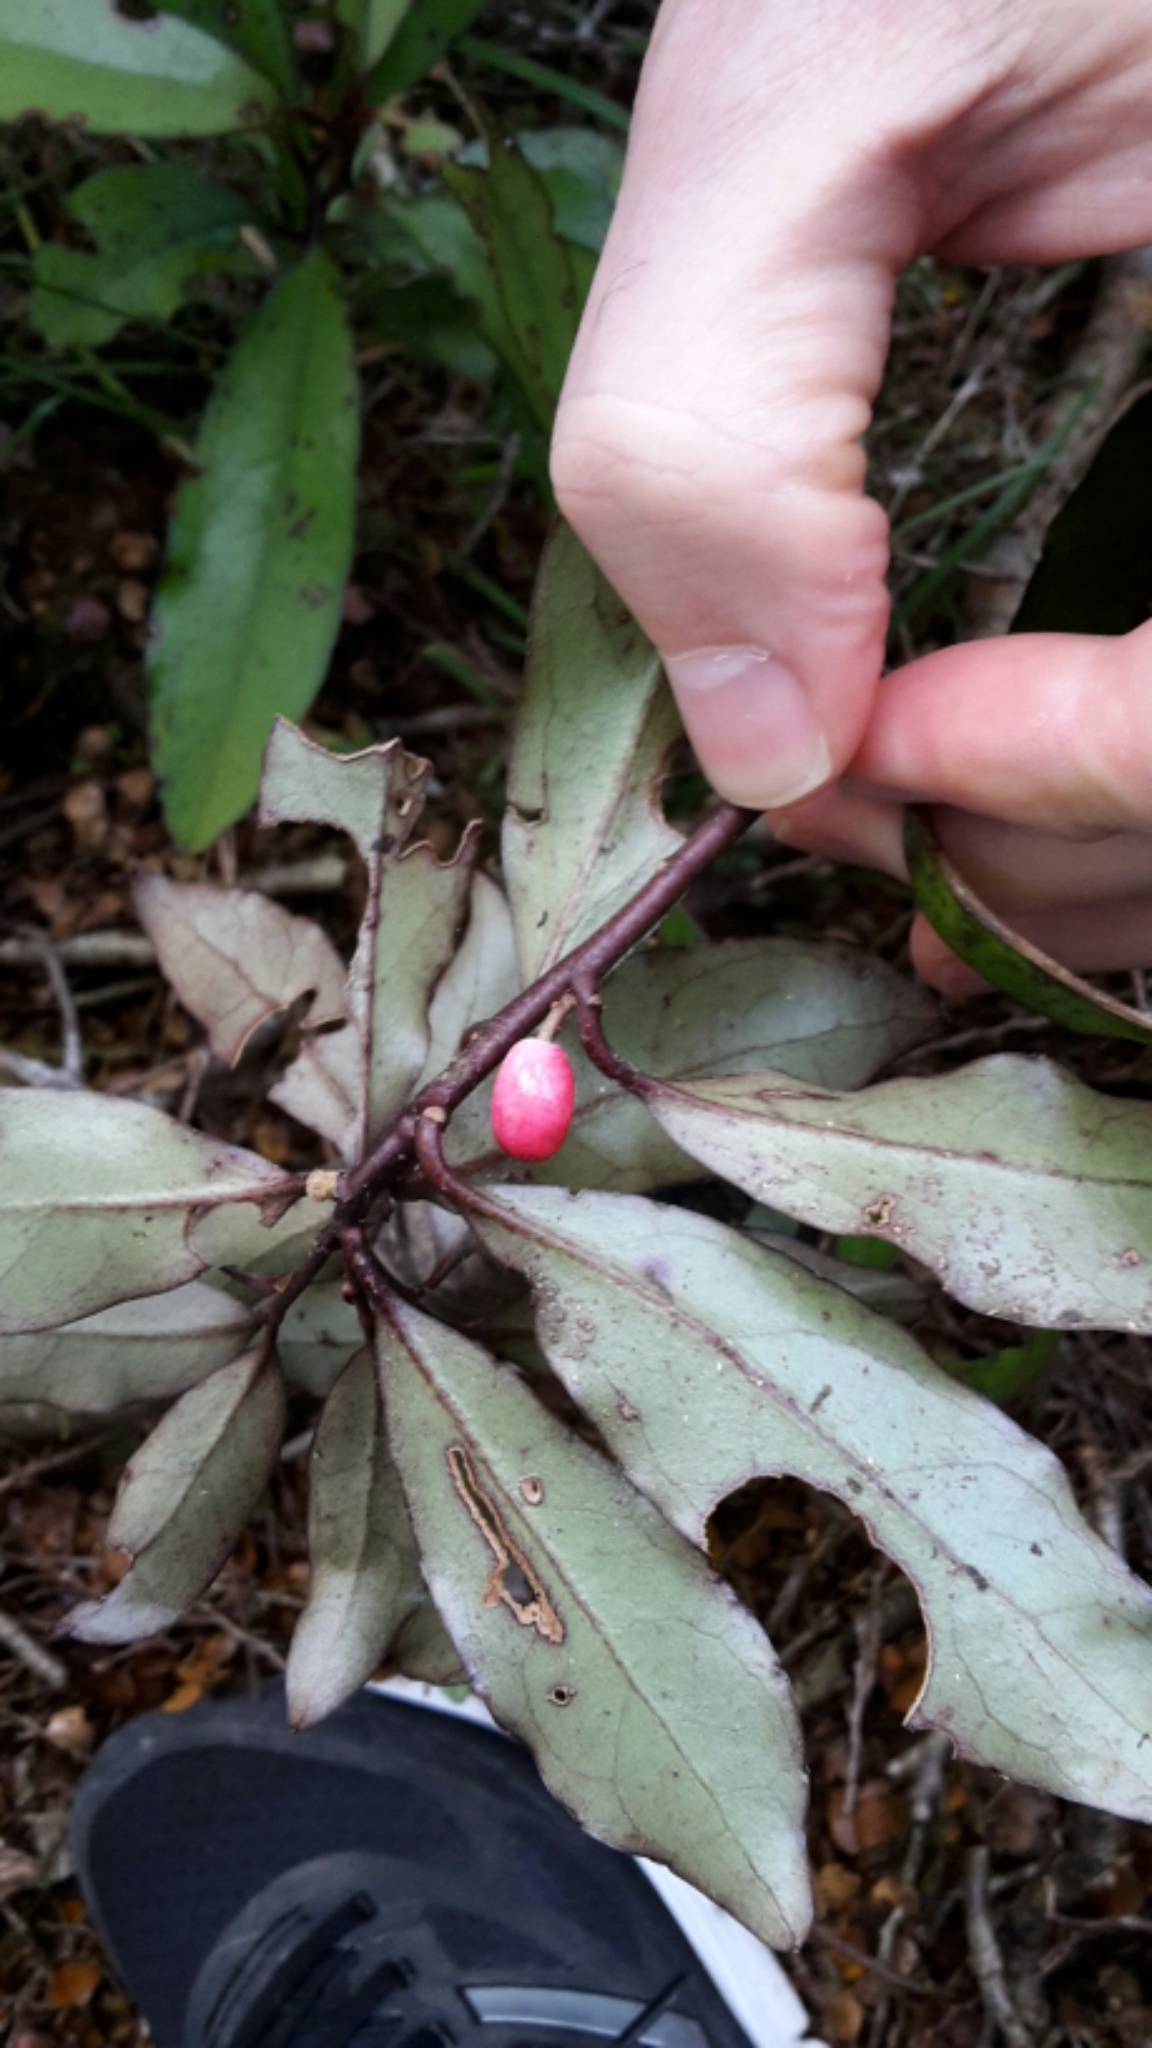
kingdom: Plantae
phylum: Tracheophyta
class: Magnoliopsida
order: Asterales
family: Alseuosmiaceae
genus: Alseuosmia
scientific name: Alseuosmia pusilla
